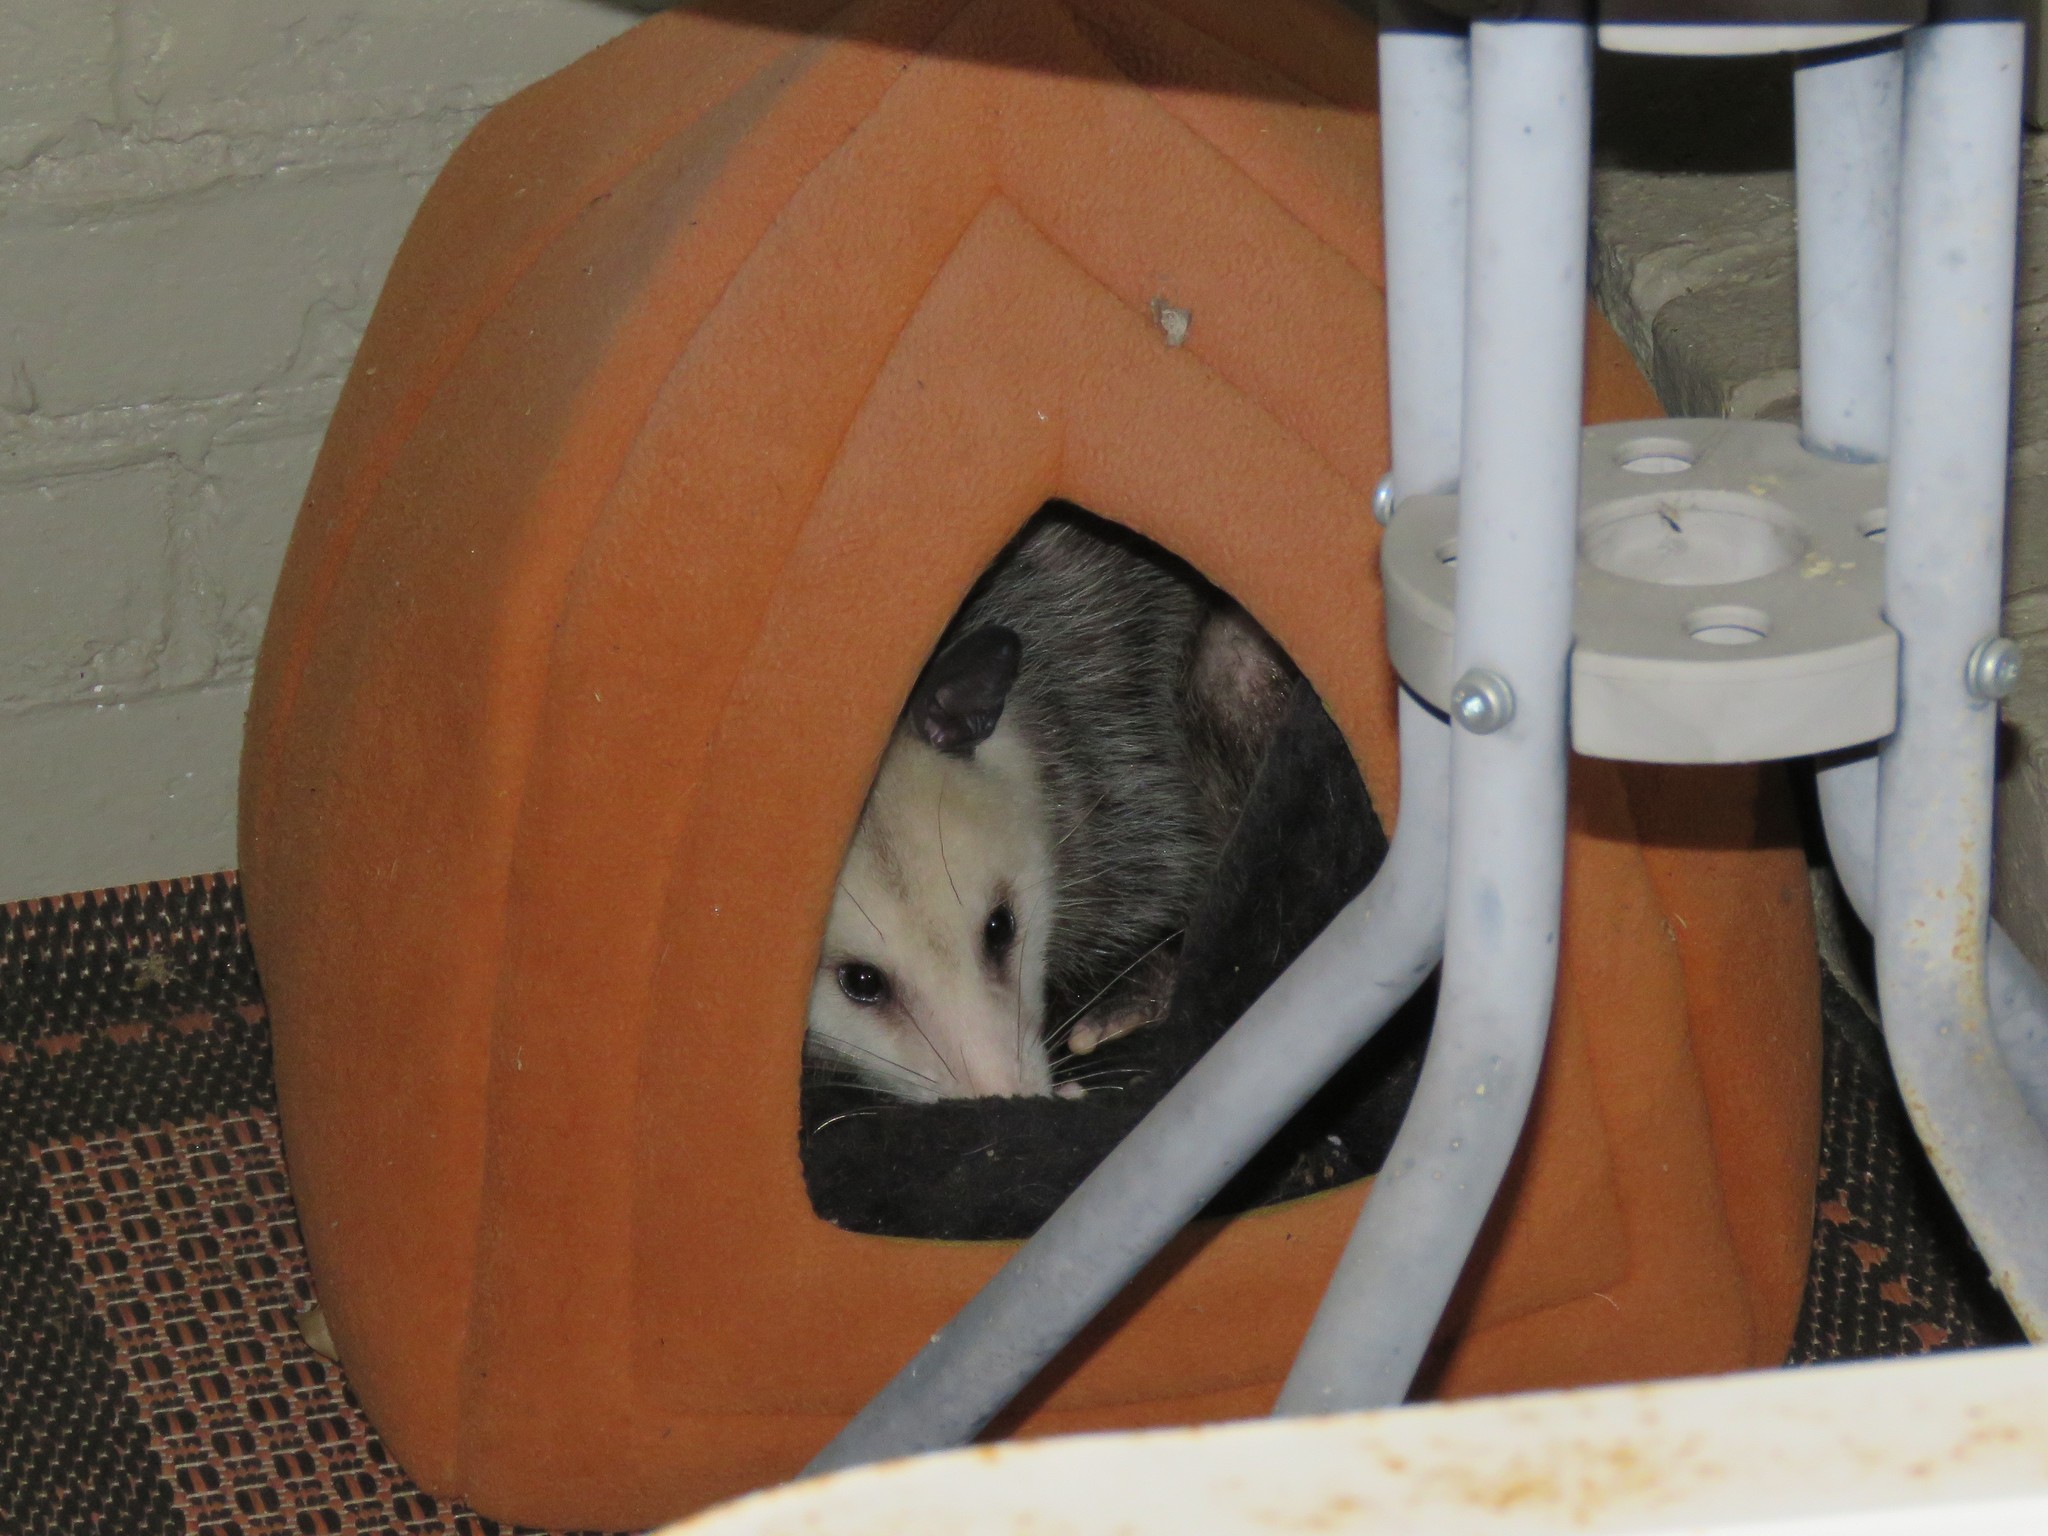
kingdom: Animalia
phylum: Chordata
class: Mammalia
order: Didelphimorphia
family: Didelphidae
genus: Didelphis
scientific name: Didelphis virginiana
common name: Virginia opossum
